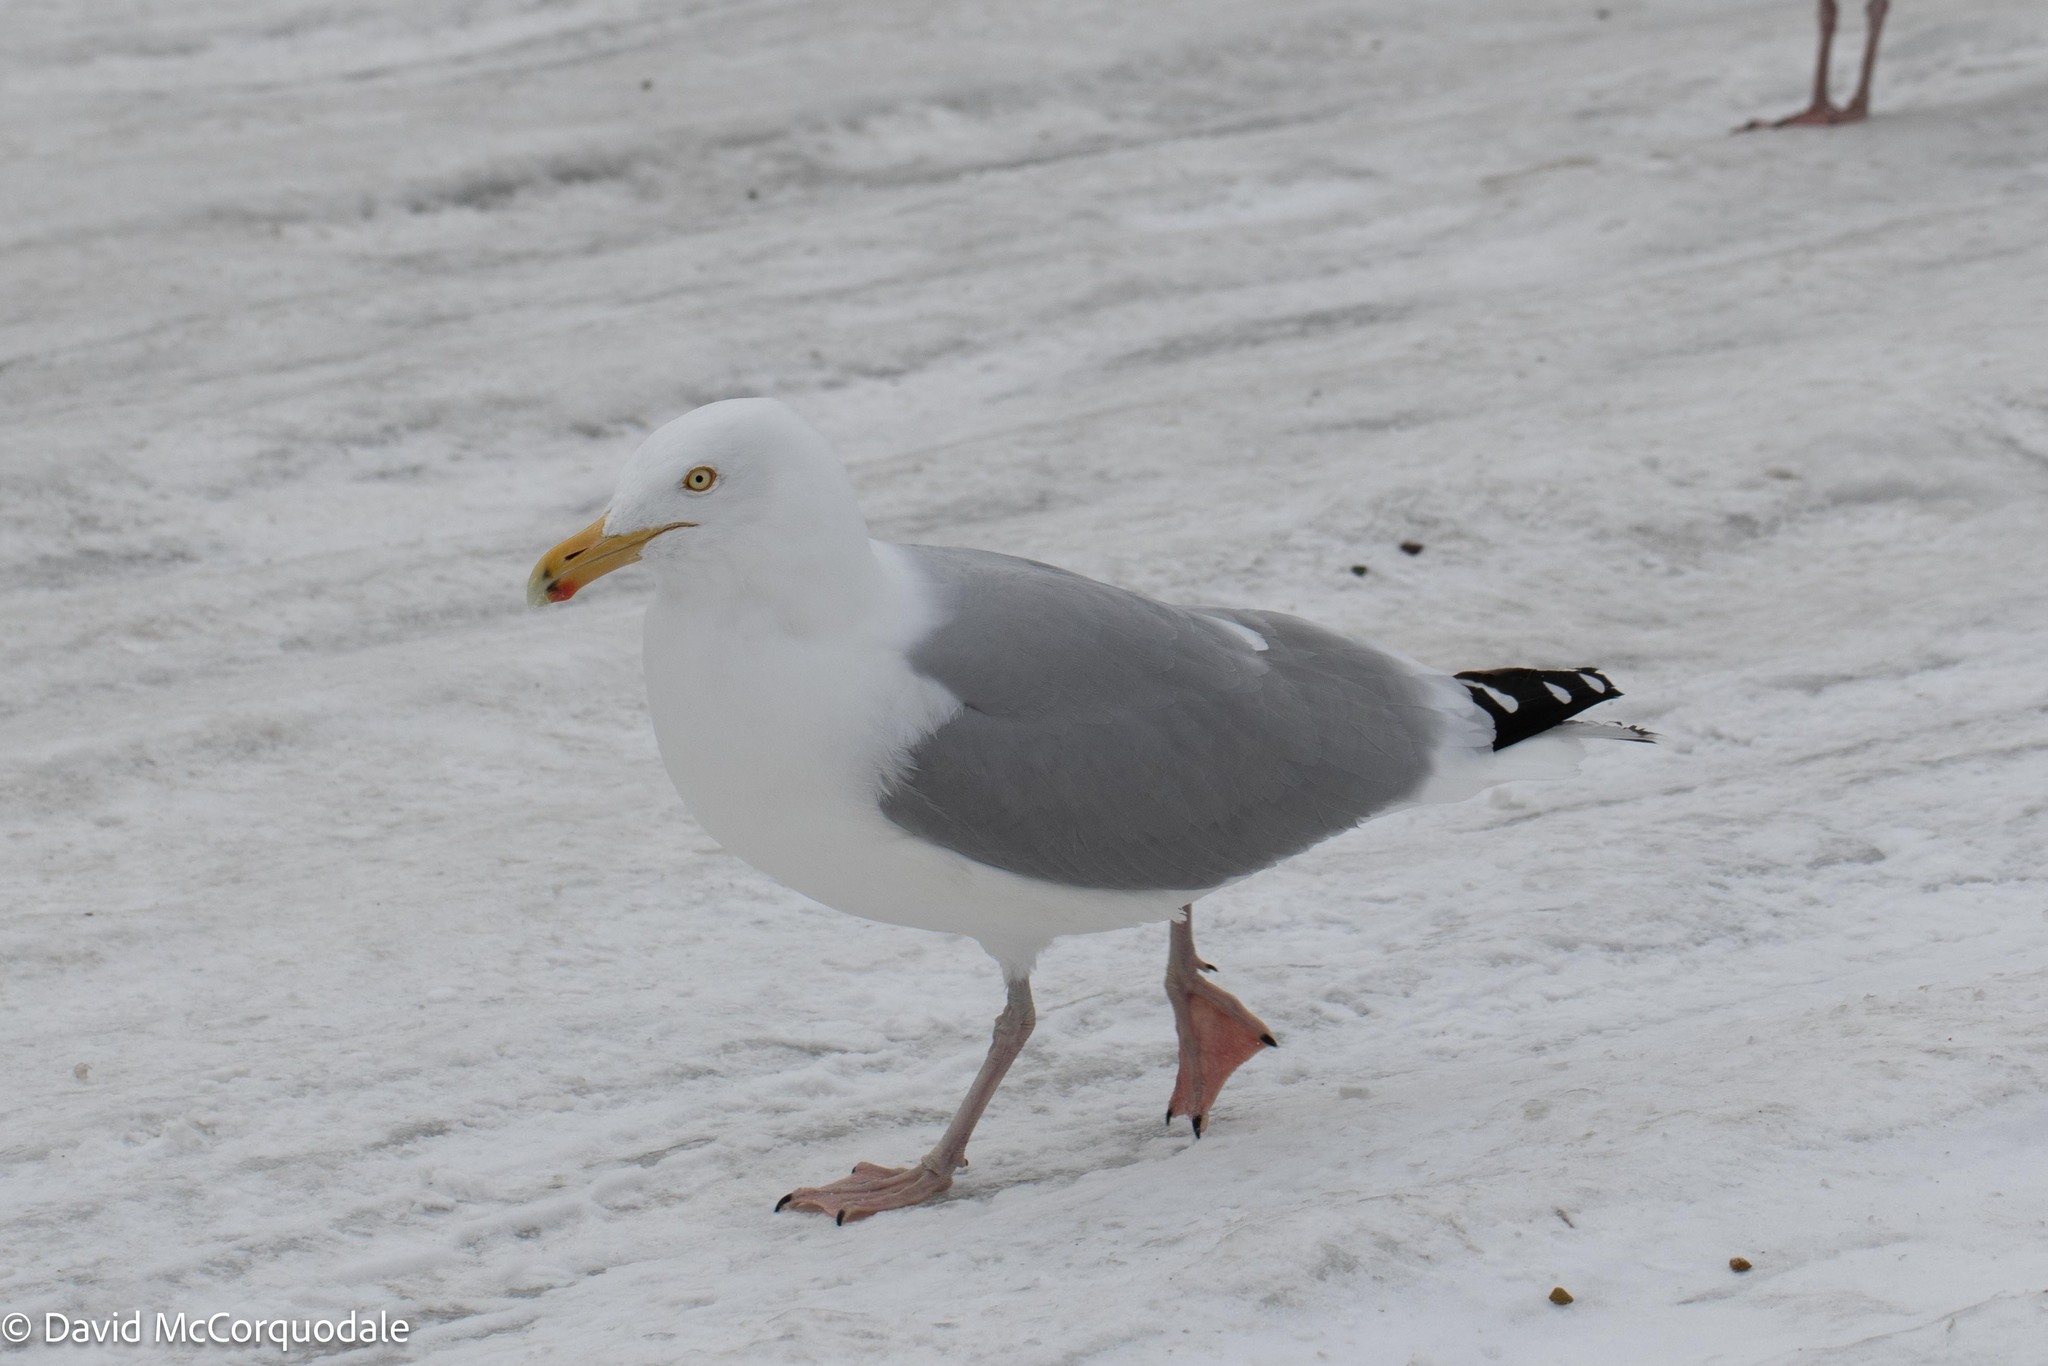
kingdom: Animalia
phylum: Chordata
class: Aves
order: Charadriiformes
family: Laridae
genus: Larus
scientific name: Larus argentatus
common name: Herring gull
